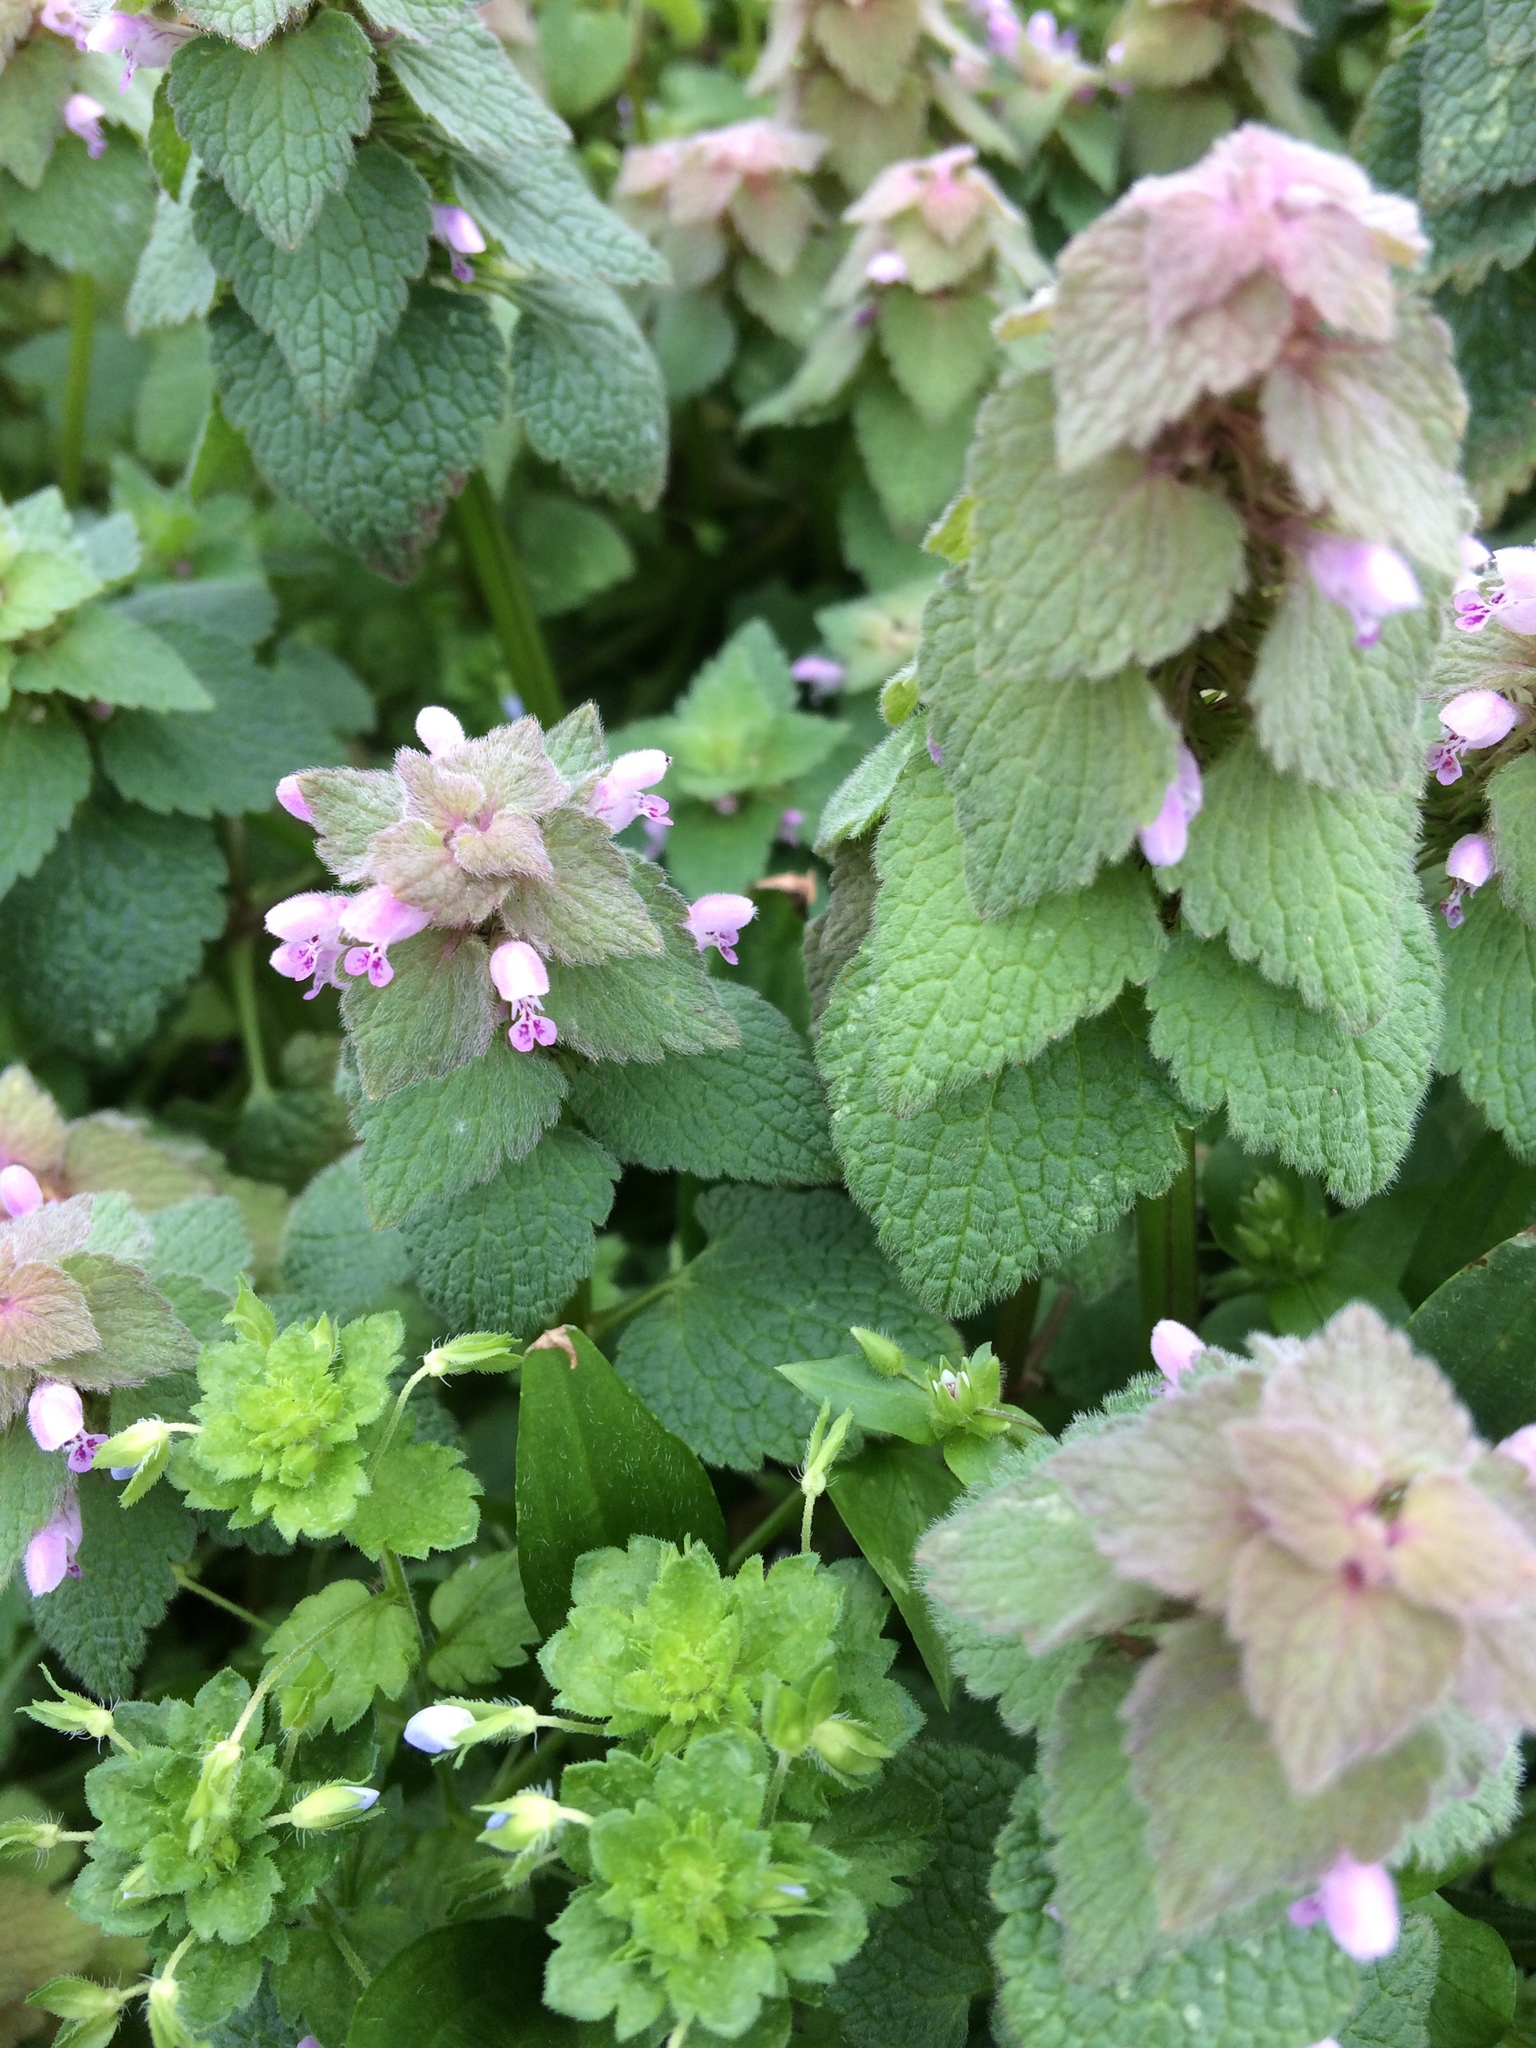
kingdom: Plantae
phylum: Tracheophyta
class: Magnoliopsida
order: Lamiales
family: Lamiaceae
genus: Lamium
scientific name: Lamium purpureum
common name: Red dead-nettle
